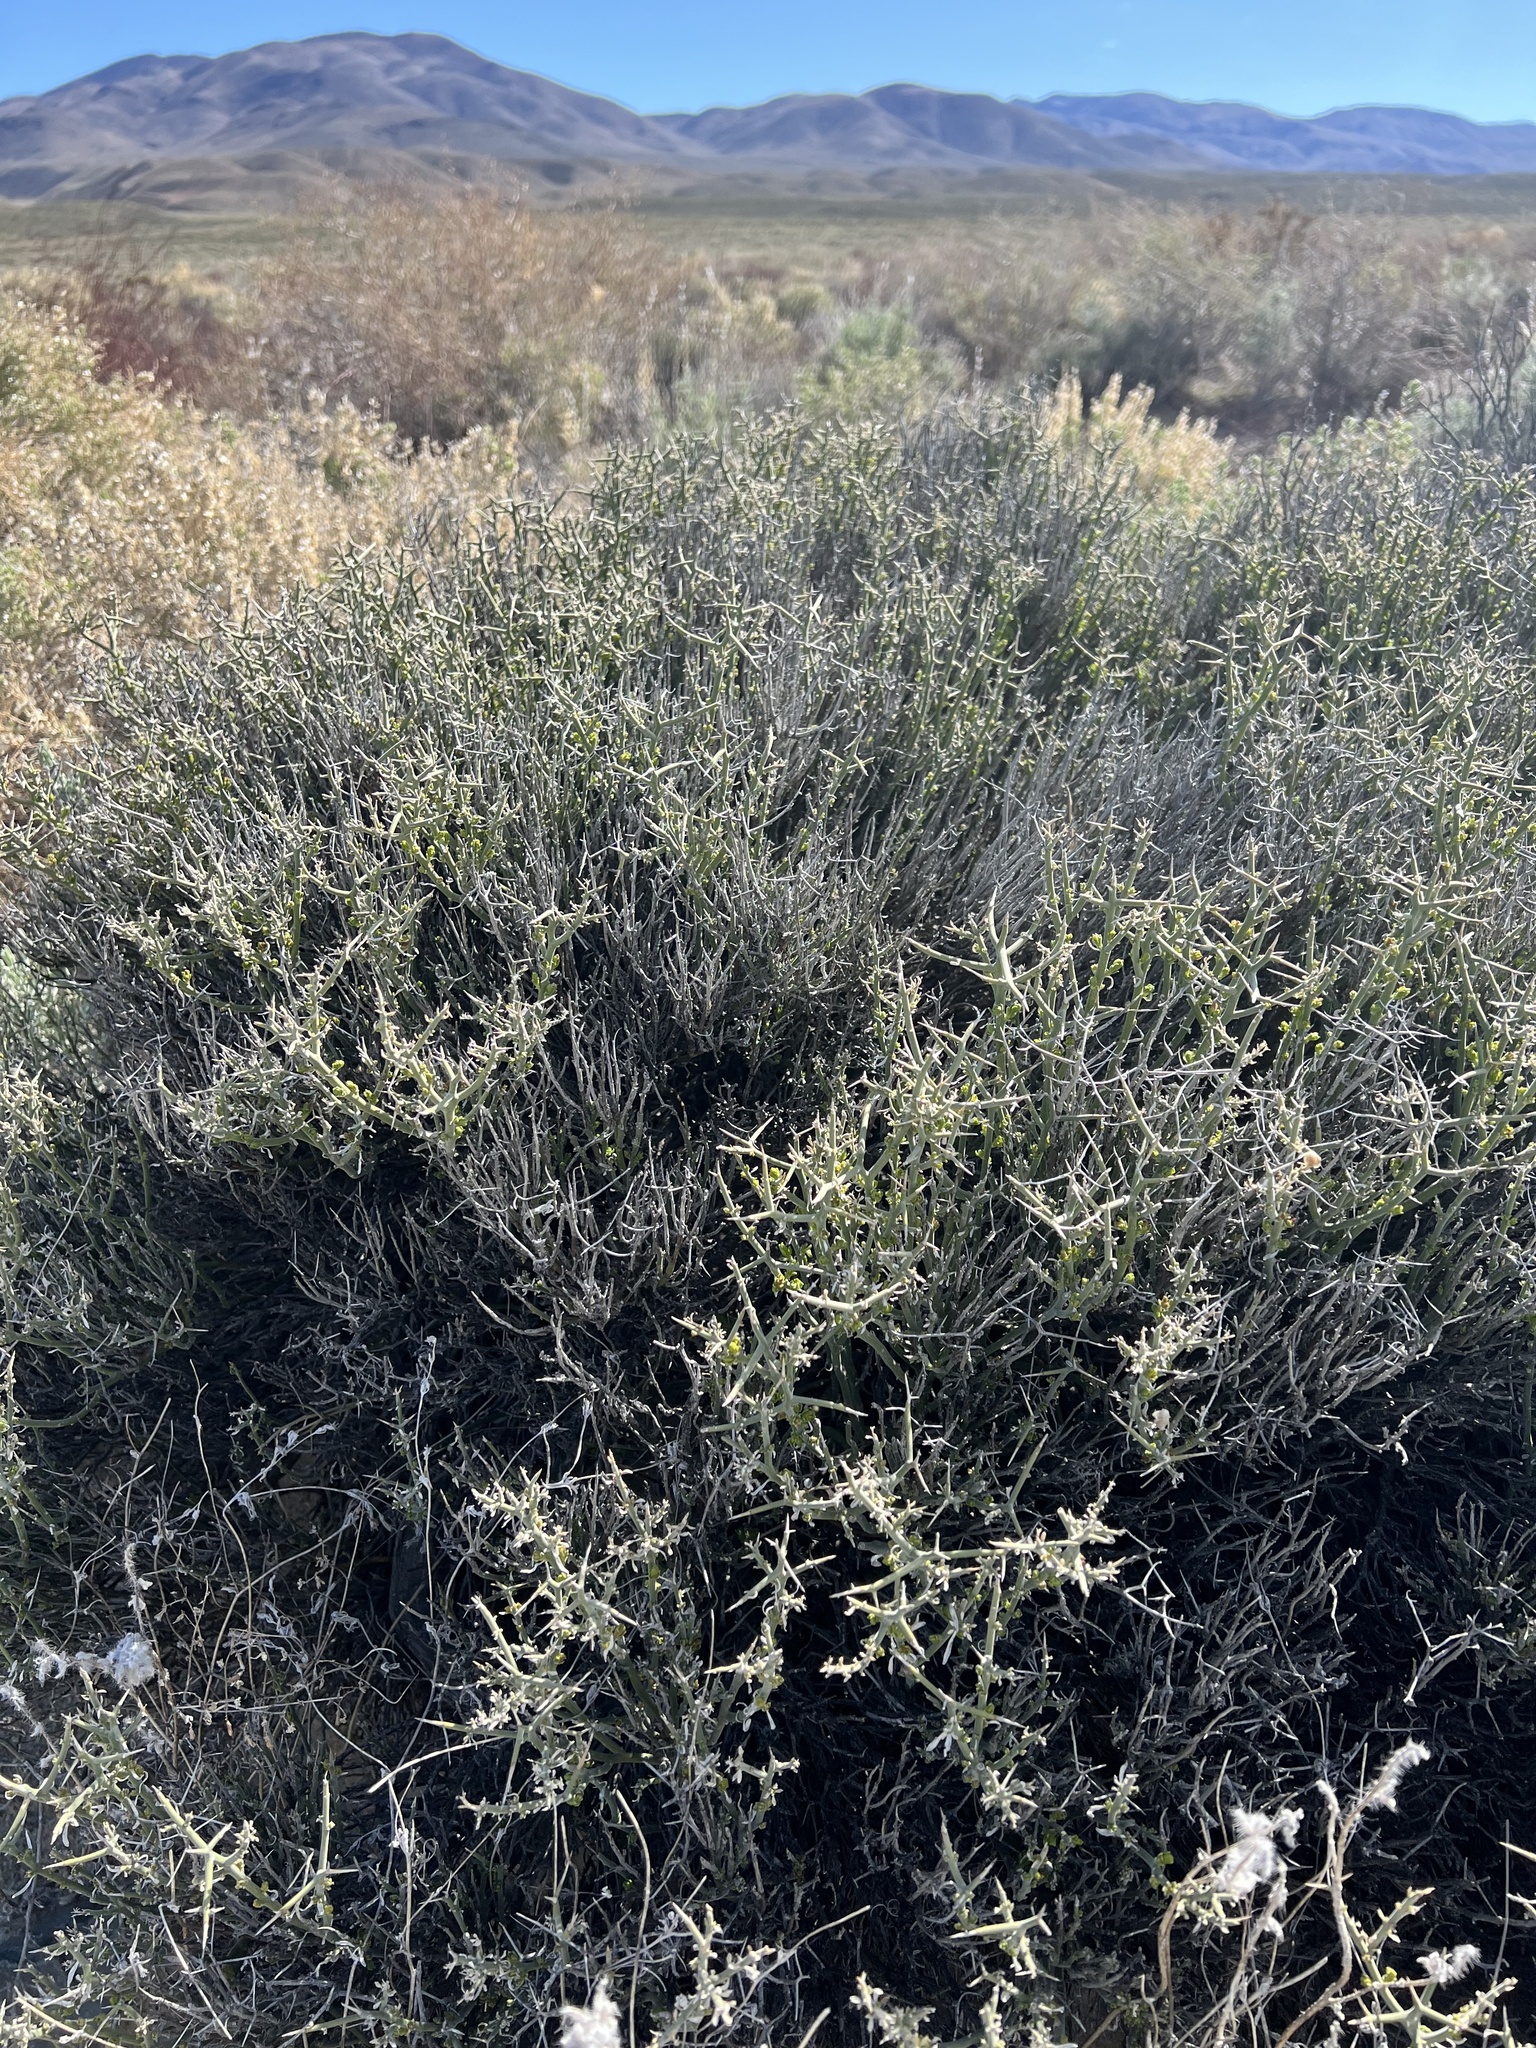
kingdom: Plantae
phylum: Tracheophyta
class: Magnoliopsida
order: Lamiales
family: Oleaceae
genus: Menodora
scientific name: Menodora spinescens
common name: Spiny menodora
